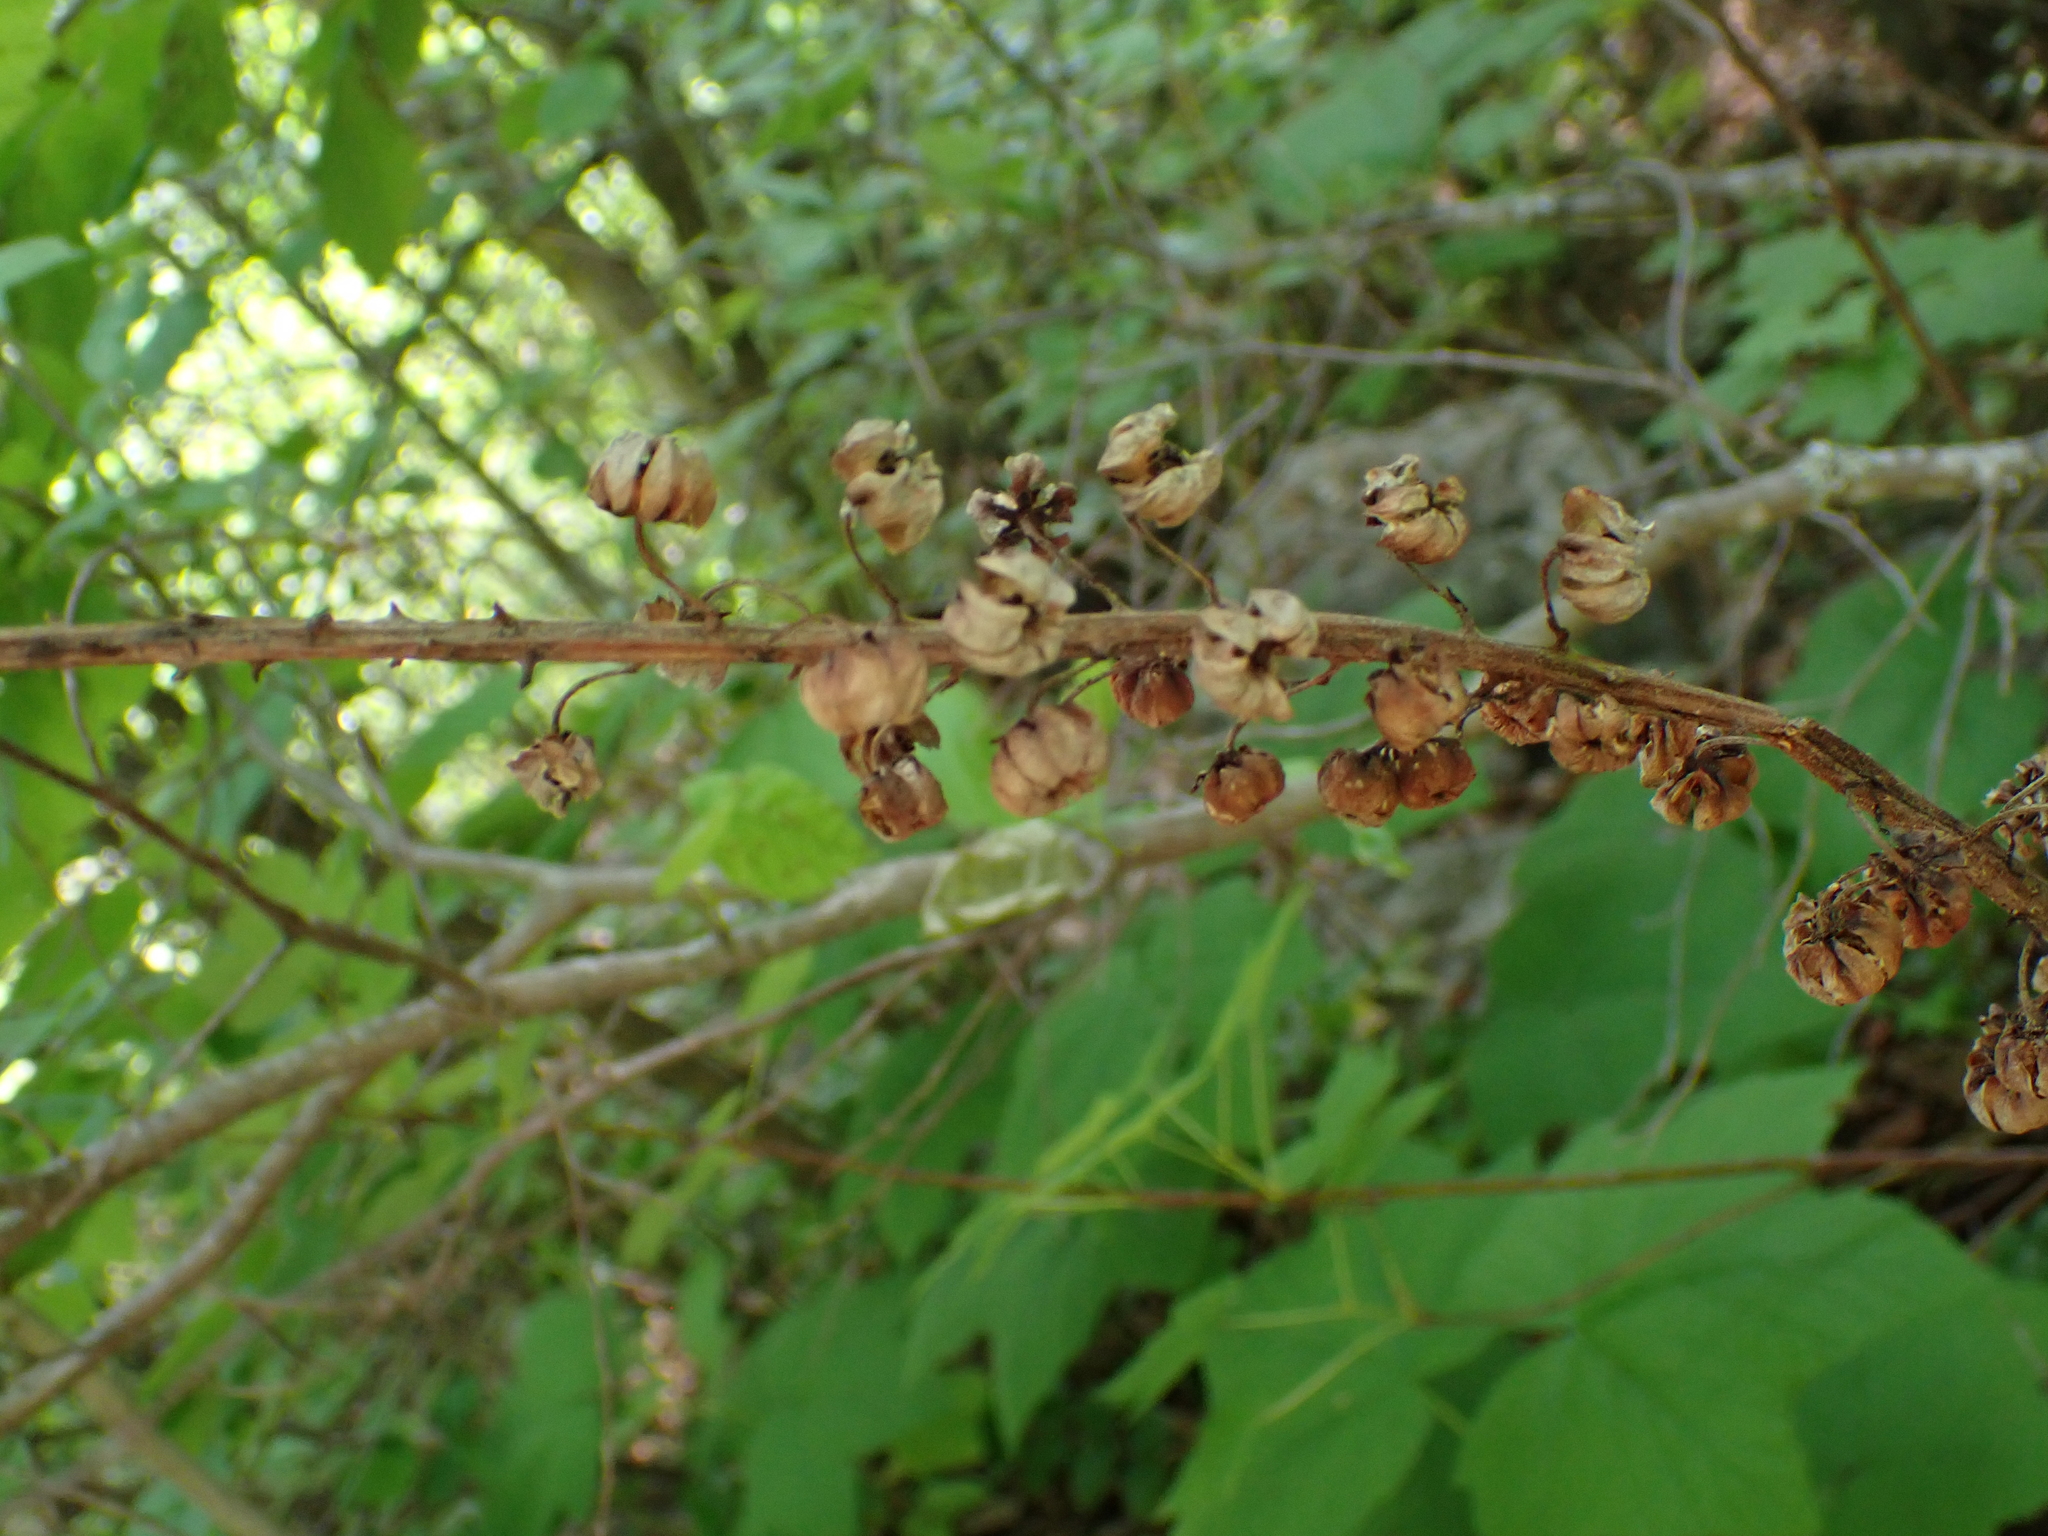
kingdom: Plantae
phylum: Tracheophyta
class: Magnoliopsida
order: Ericales
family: Ericaceae
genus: Pterospora
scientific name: Pterospora andromedea
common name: Giant bird's-nest
